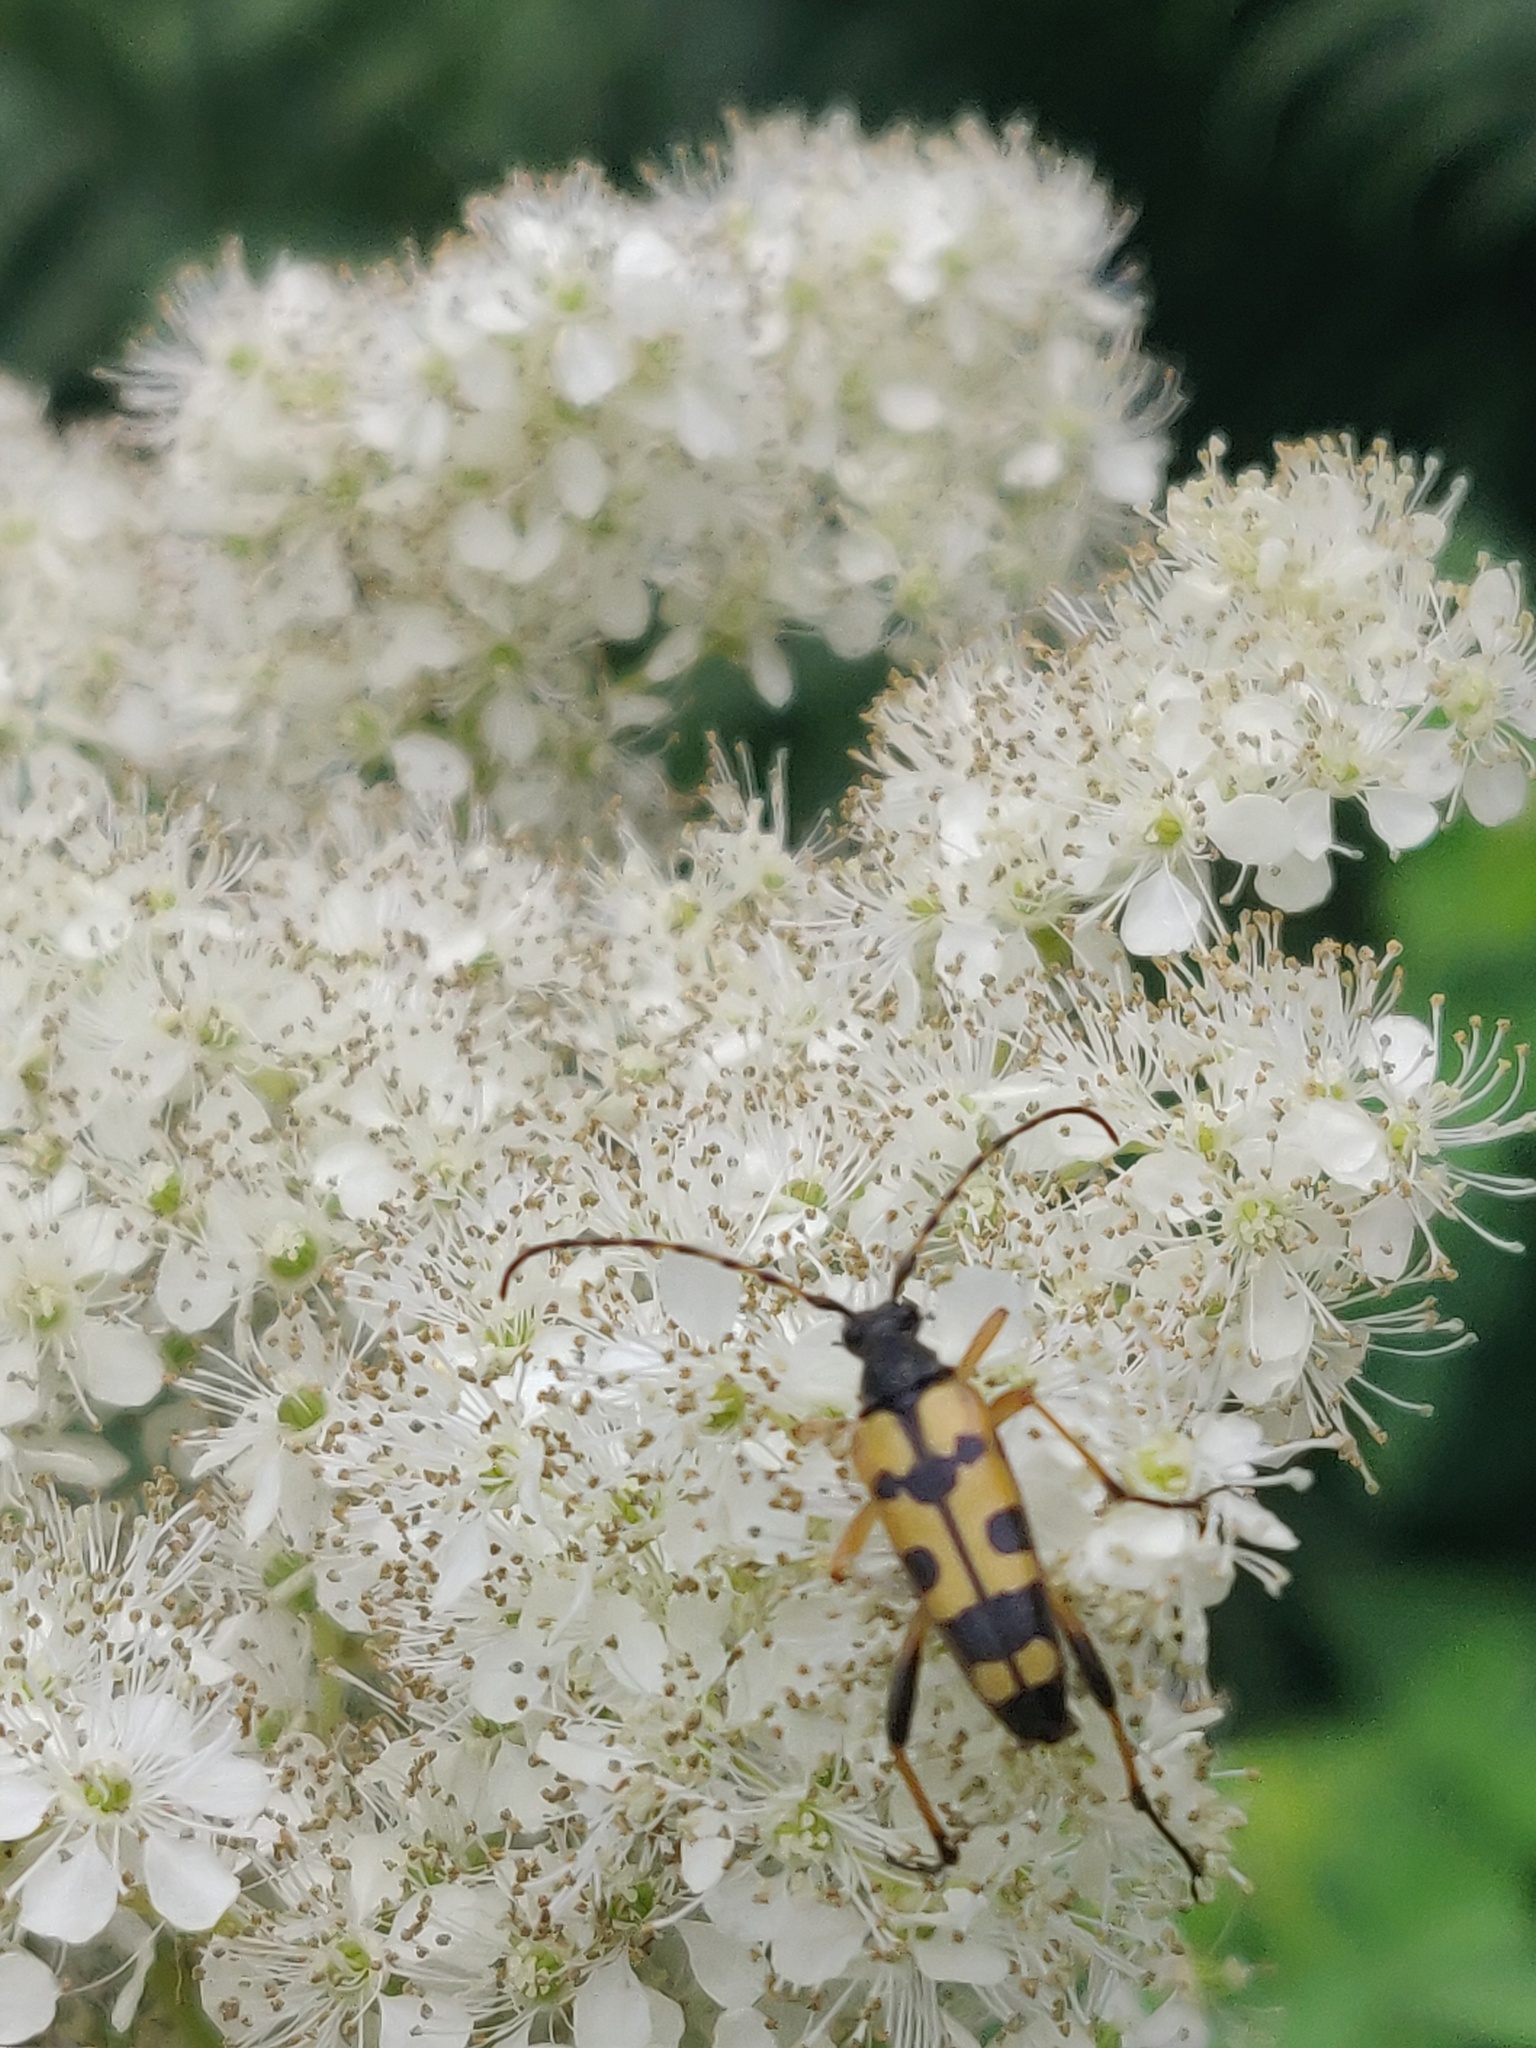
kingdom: Animalia
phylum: Arthropoda
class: Insecta
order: Coleoptera
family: Cerambycidae
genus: Rutpela
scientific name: Rutpela maculata
